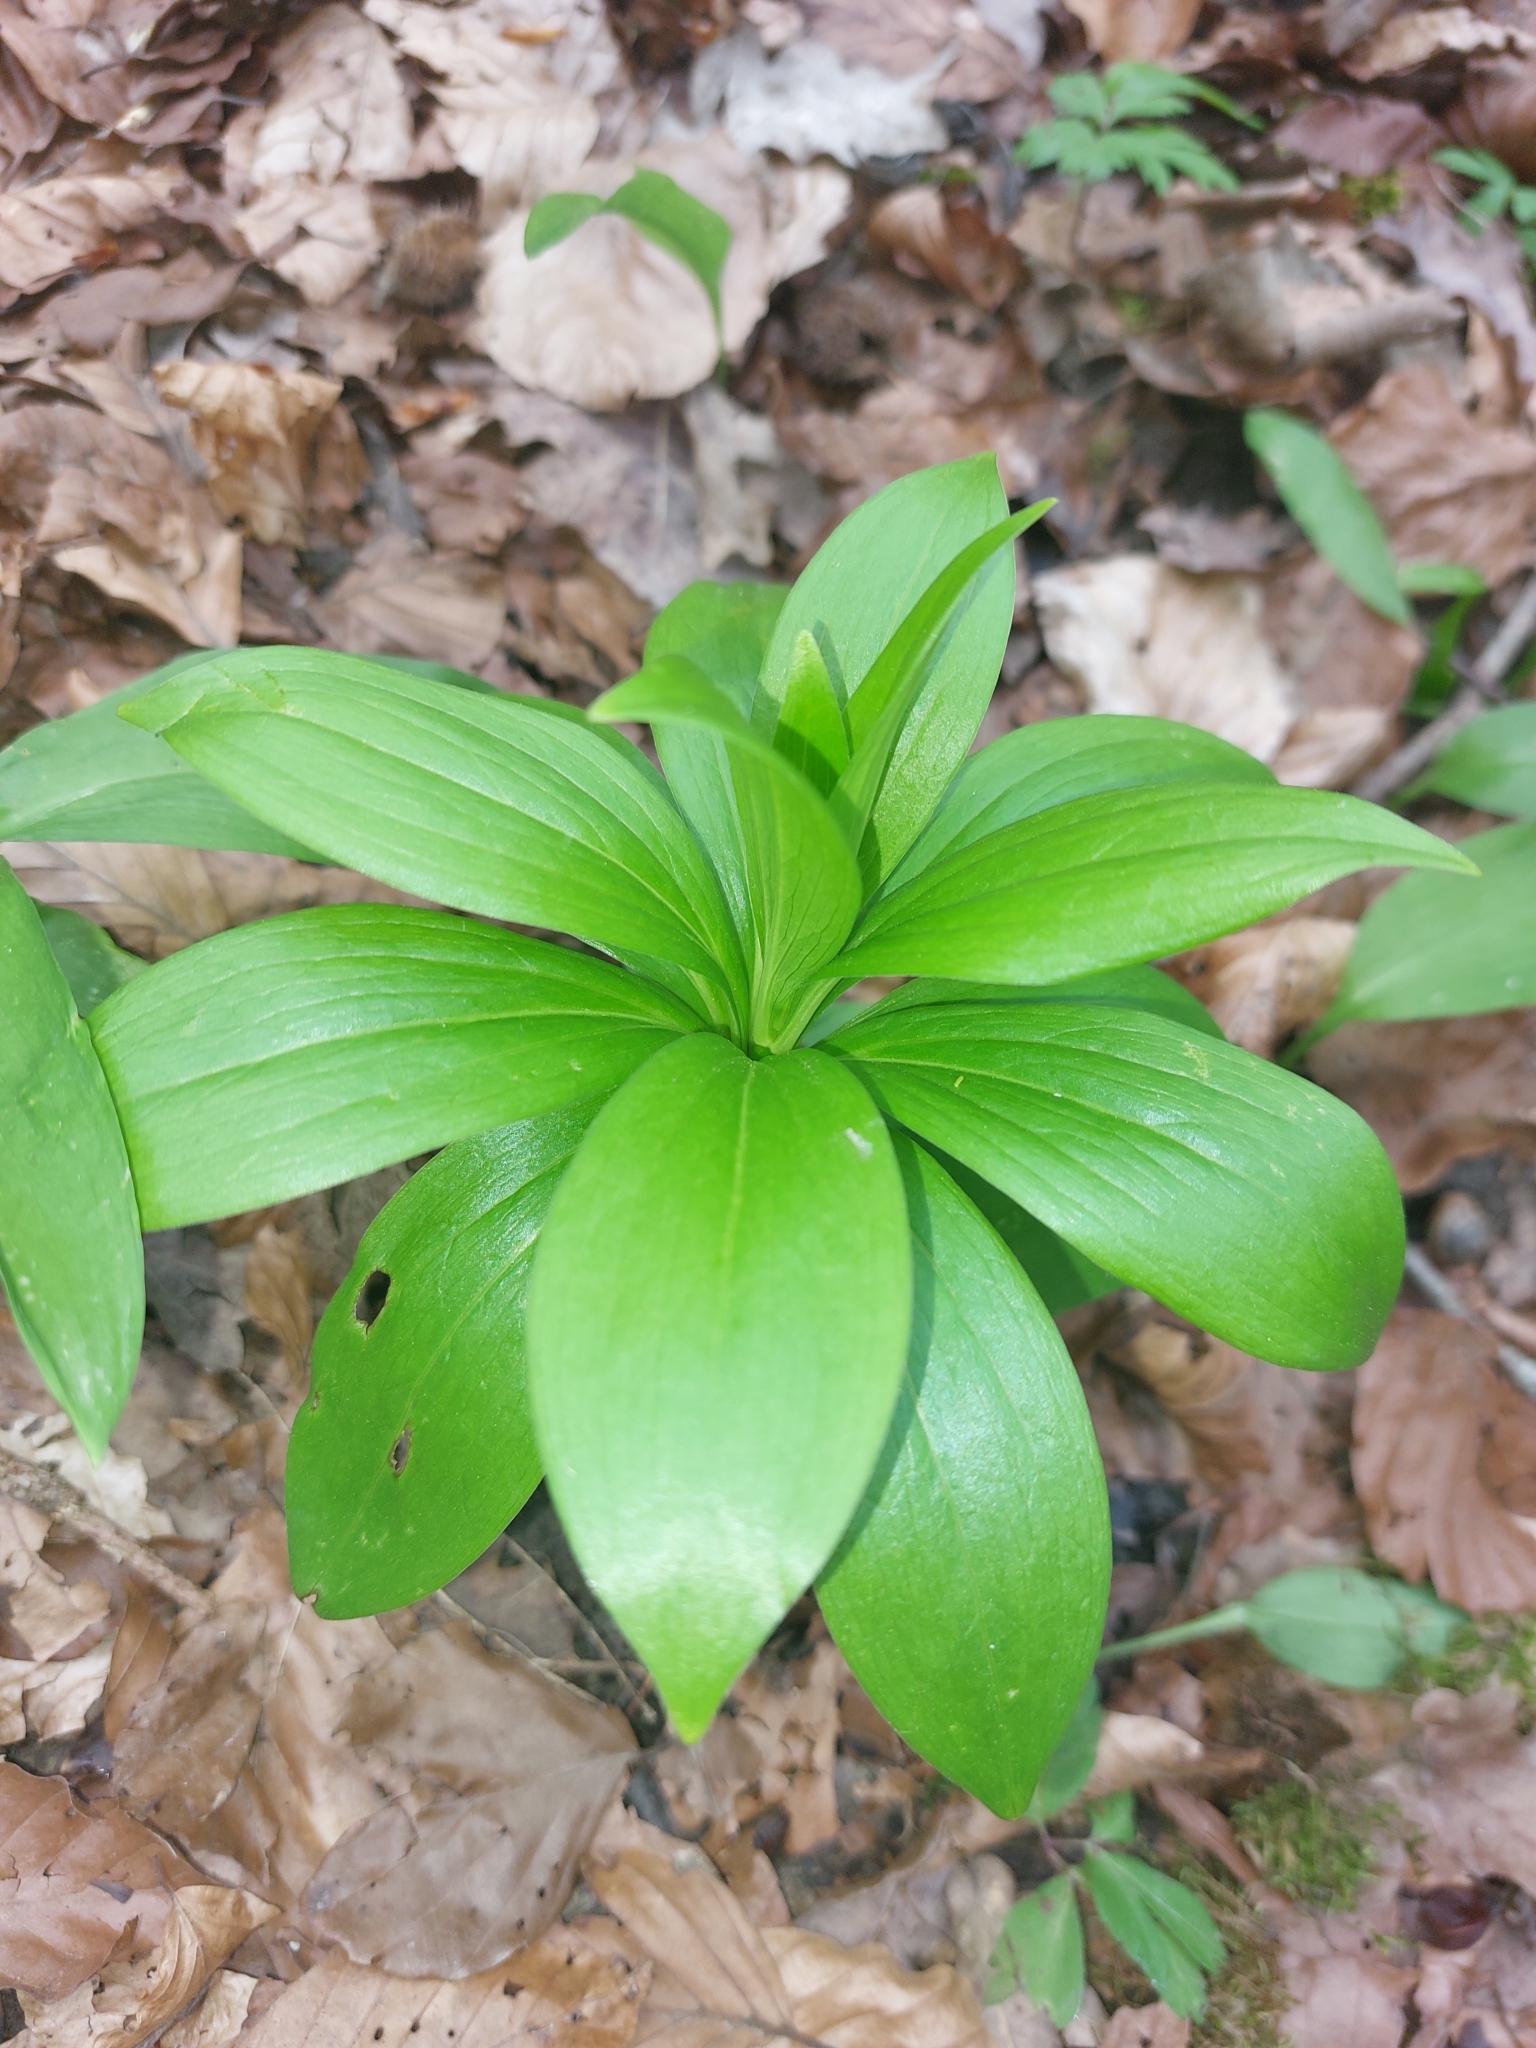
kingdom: Plantae
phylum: Tracheophyta
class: Liliopsida
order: Liliales
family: Liliaceae
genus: Lilium
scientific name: Lilium martagon
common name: Martagon lily
